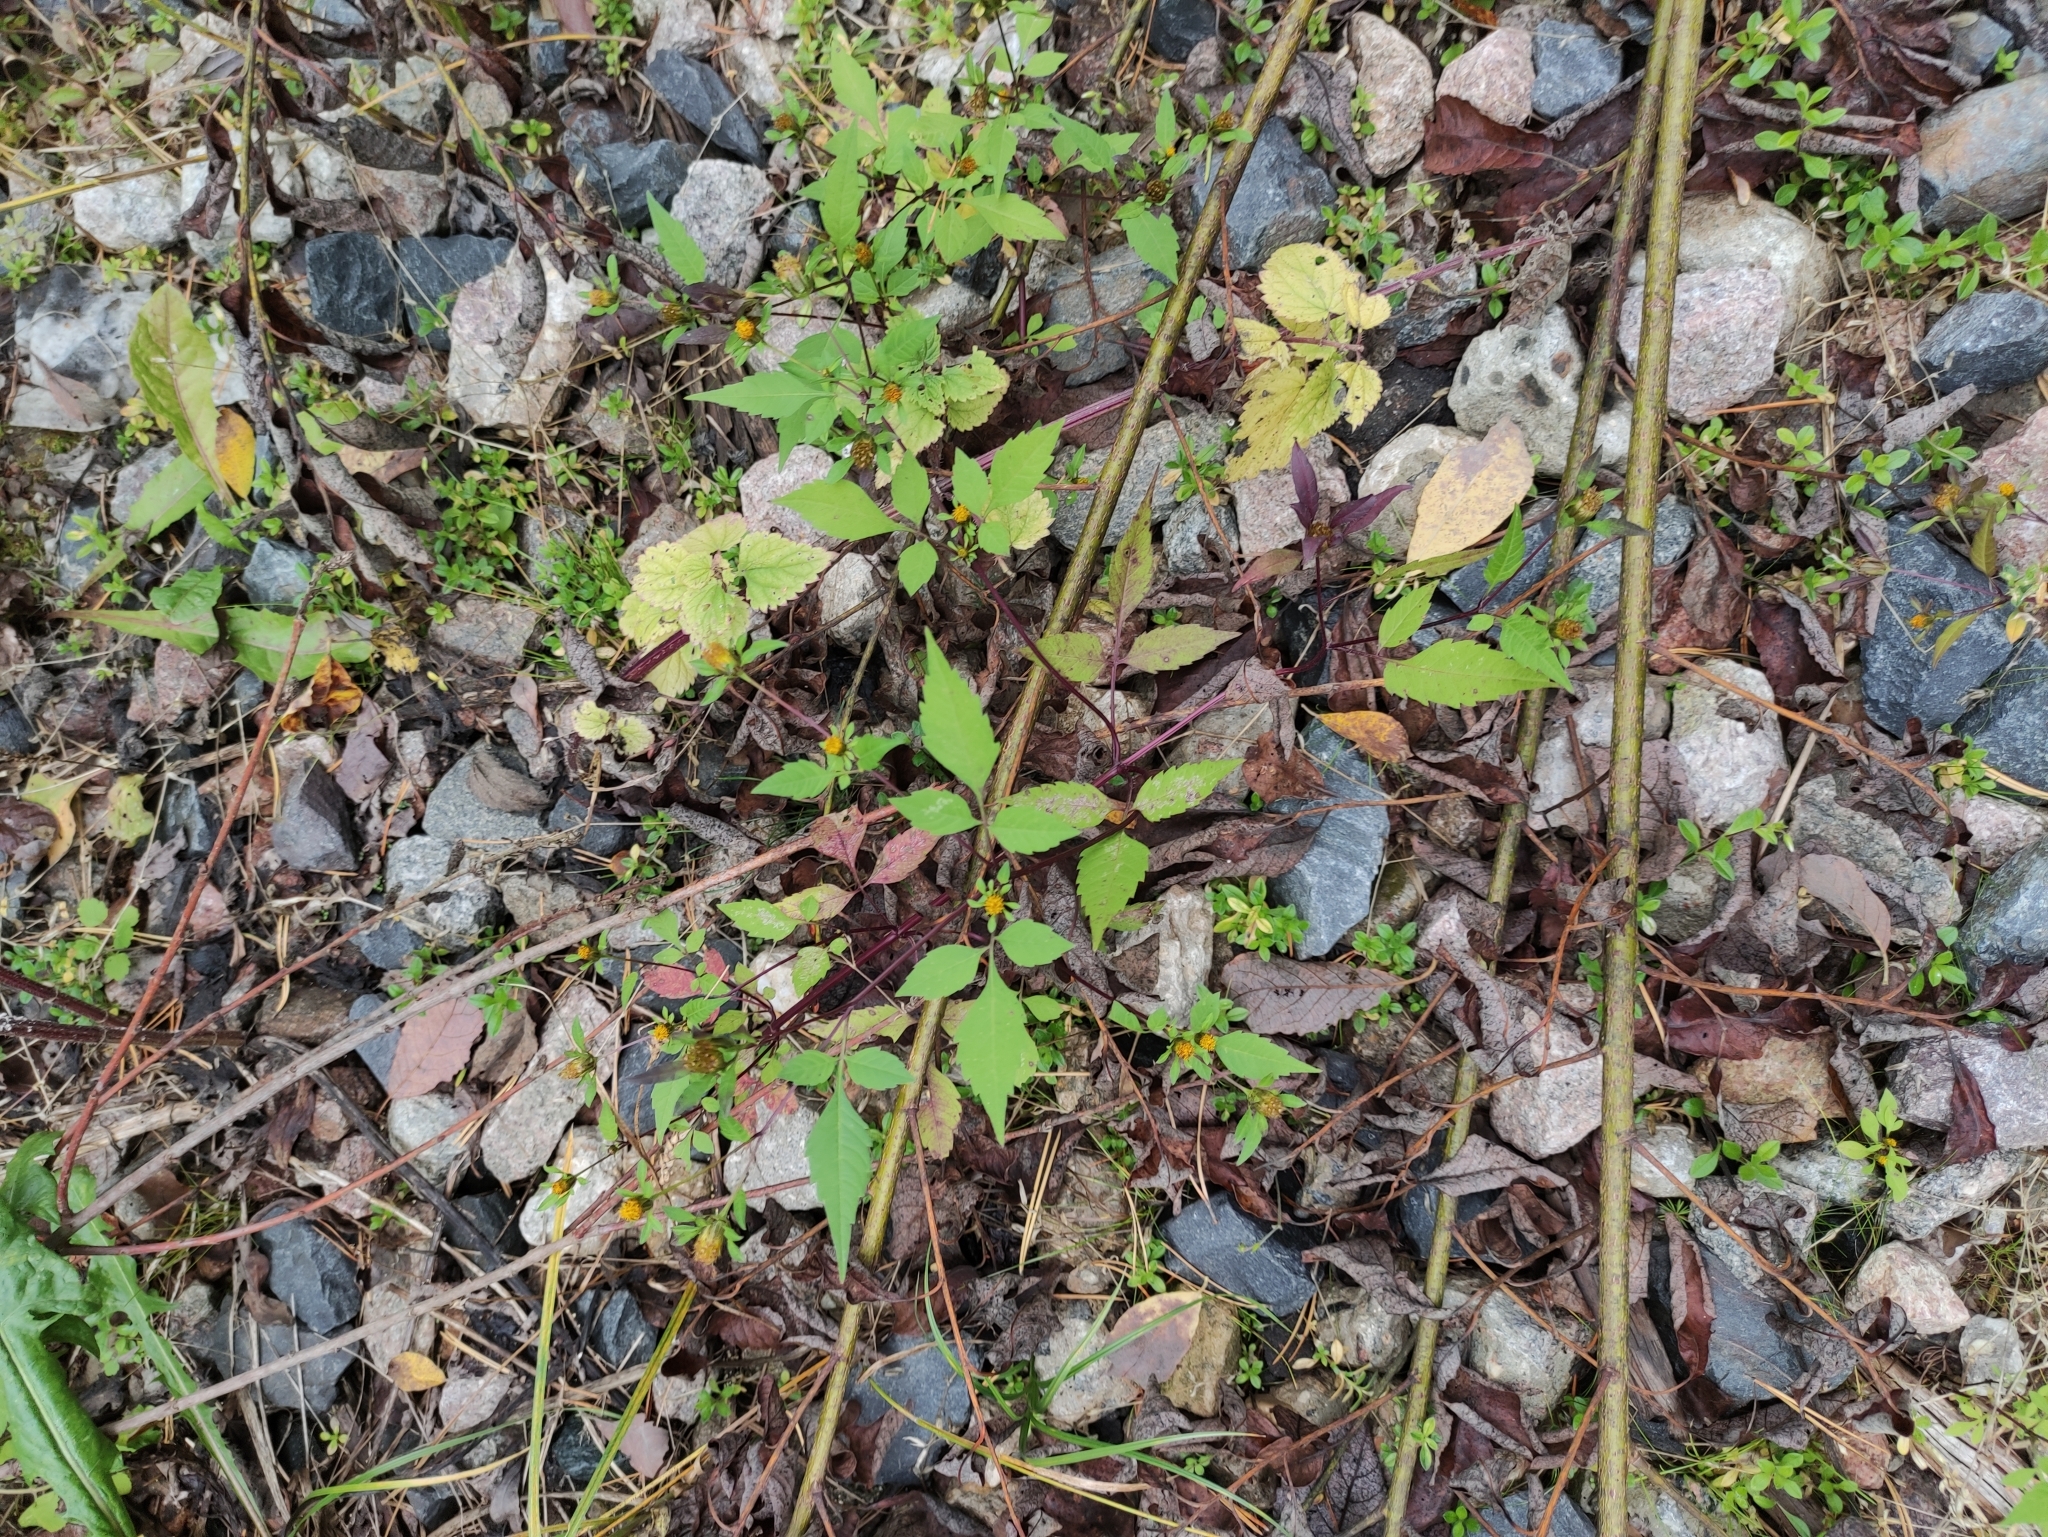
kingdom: Plantae
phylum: Tracheophyta
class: Magnoliopsida
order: Asterales
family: Asteraceae
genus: Bidens
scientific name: Bidens frondosa
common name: Beggarticks
